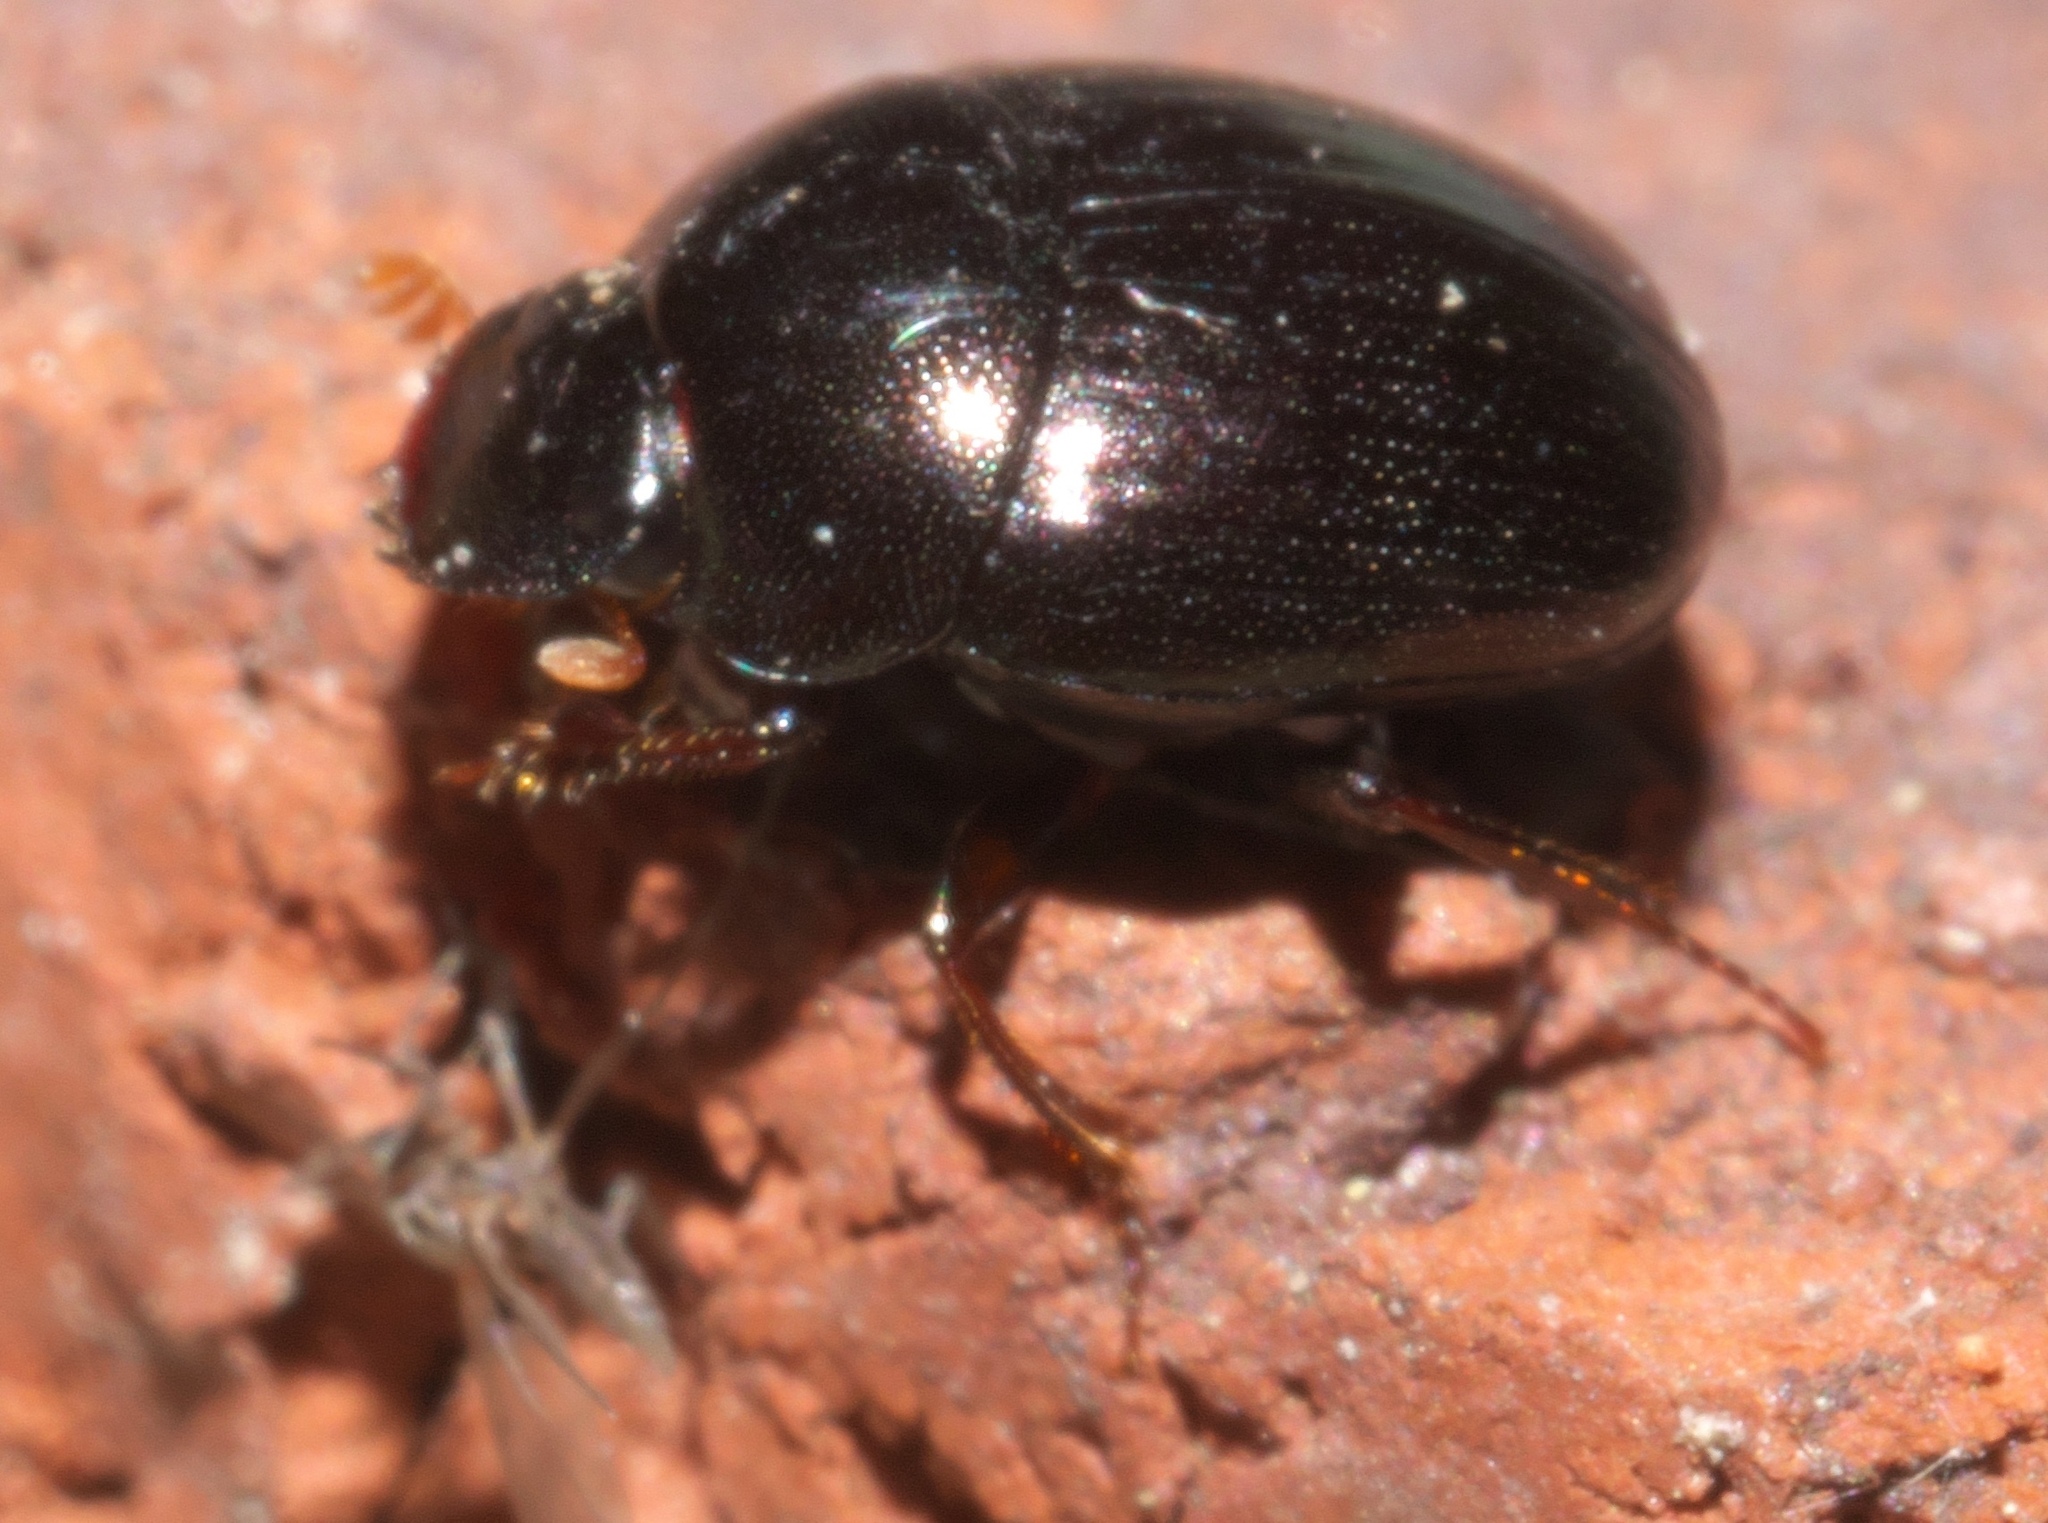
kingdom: Animalia
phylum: Arthropoda
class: Insecta
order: Coleoptera
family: Scarabaeidae
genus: Pseudocanthon
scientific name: Pseudocanthon perplexus
